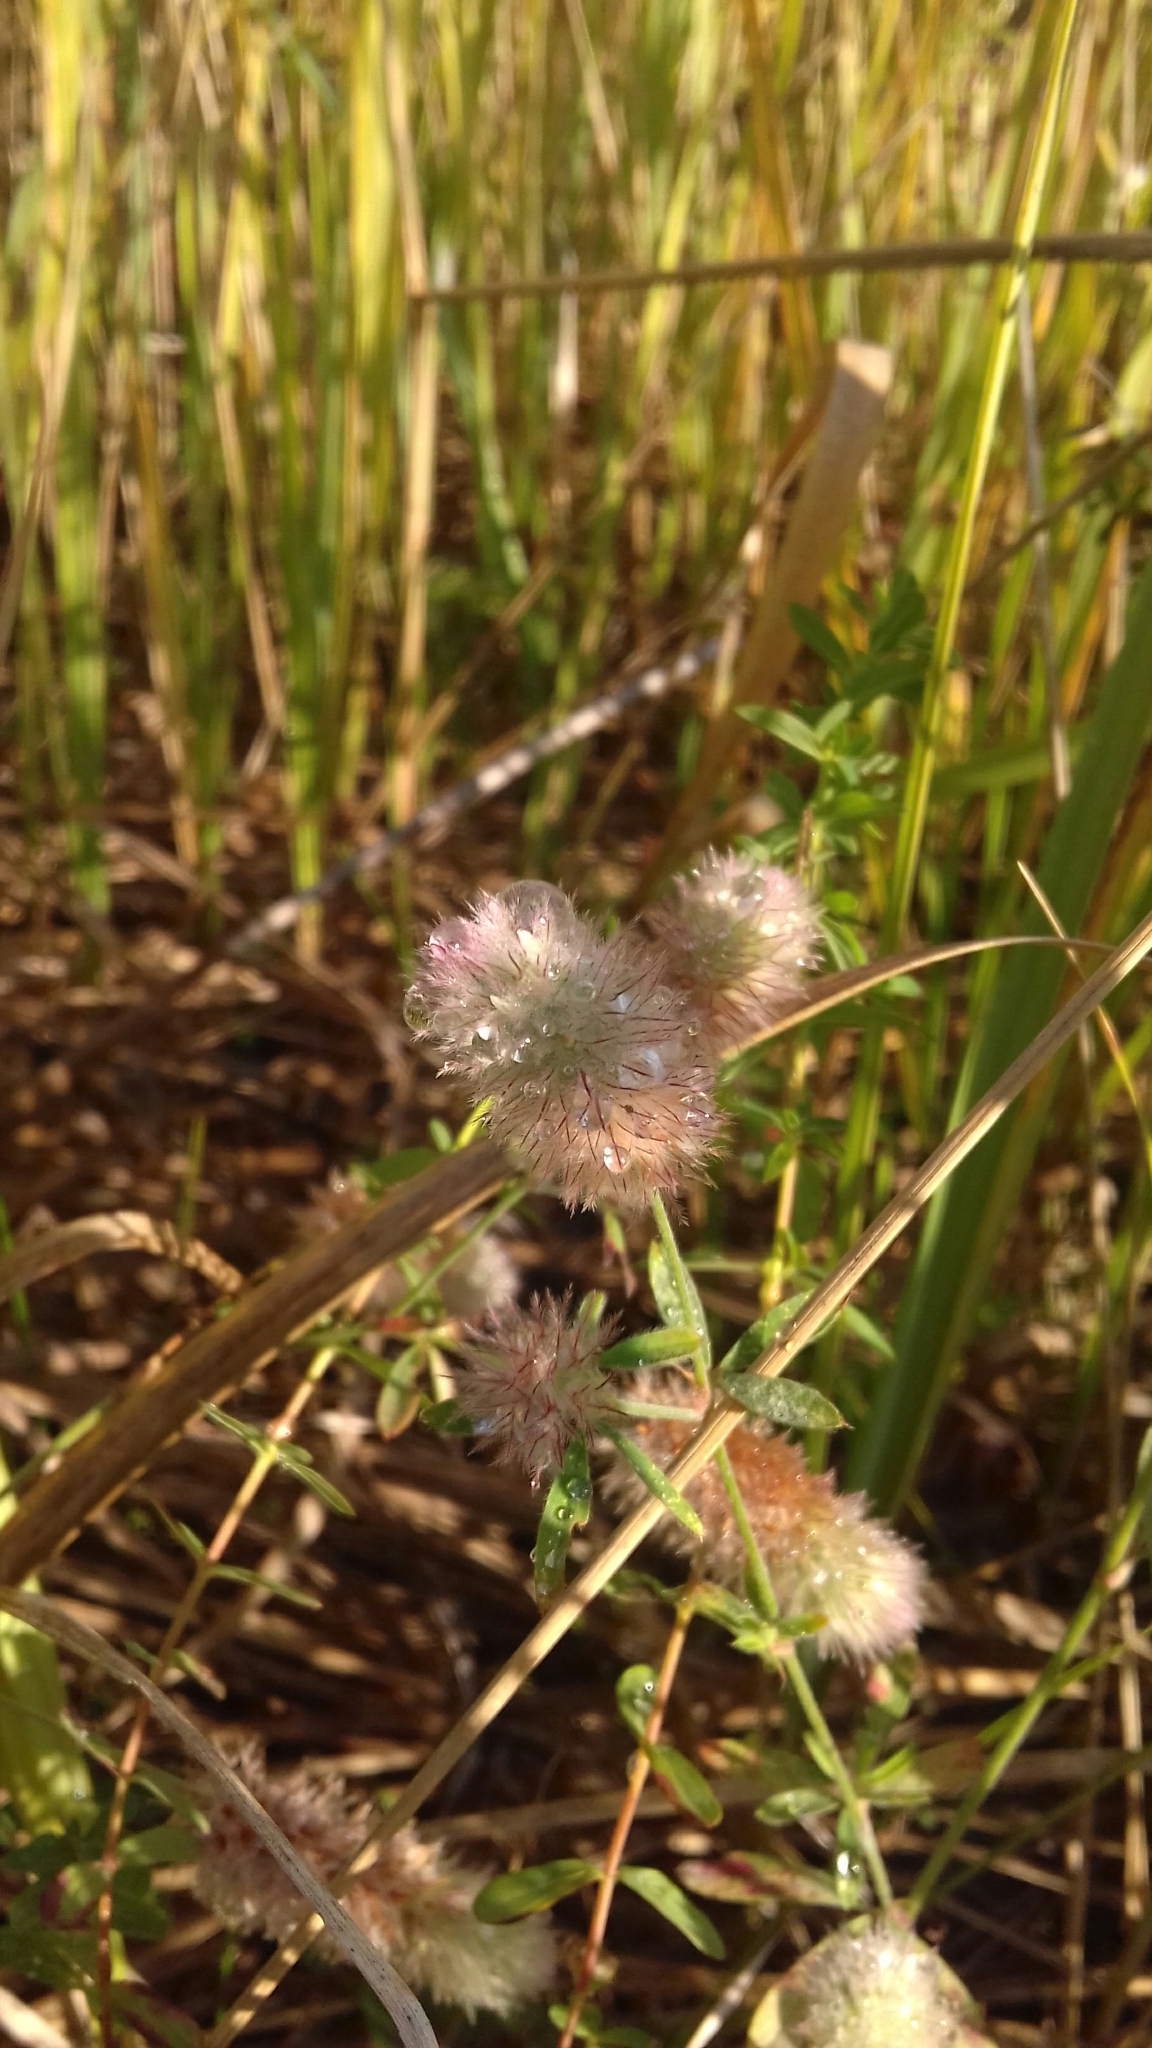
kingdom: Plantae
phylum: Tracheophyta
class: Magnoliopsida
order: Fabales
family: Fabaceae
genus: Trifolium
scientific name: Trifolium arvense
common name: Hare's-foot clover
